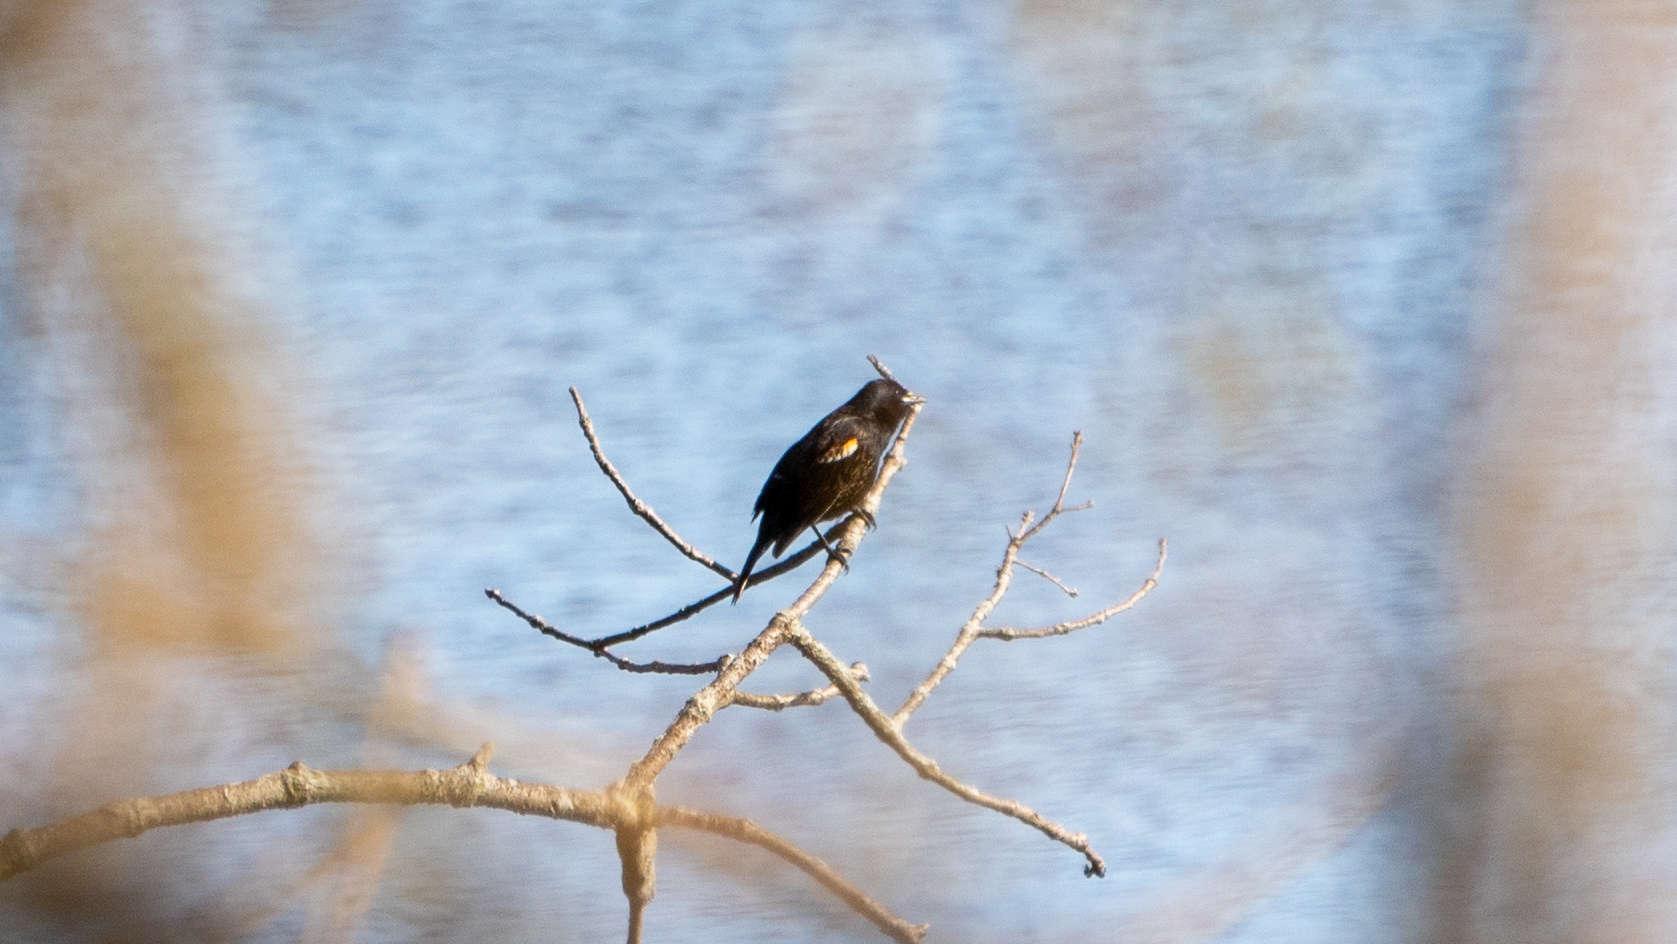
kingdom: Animalia
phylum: Chordata
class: Aves
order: Passeriformes
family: Icteridae
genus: Agelaius
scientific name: Agelaius phoeniceus
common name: Red-winged blackbird
